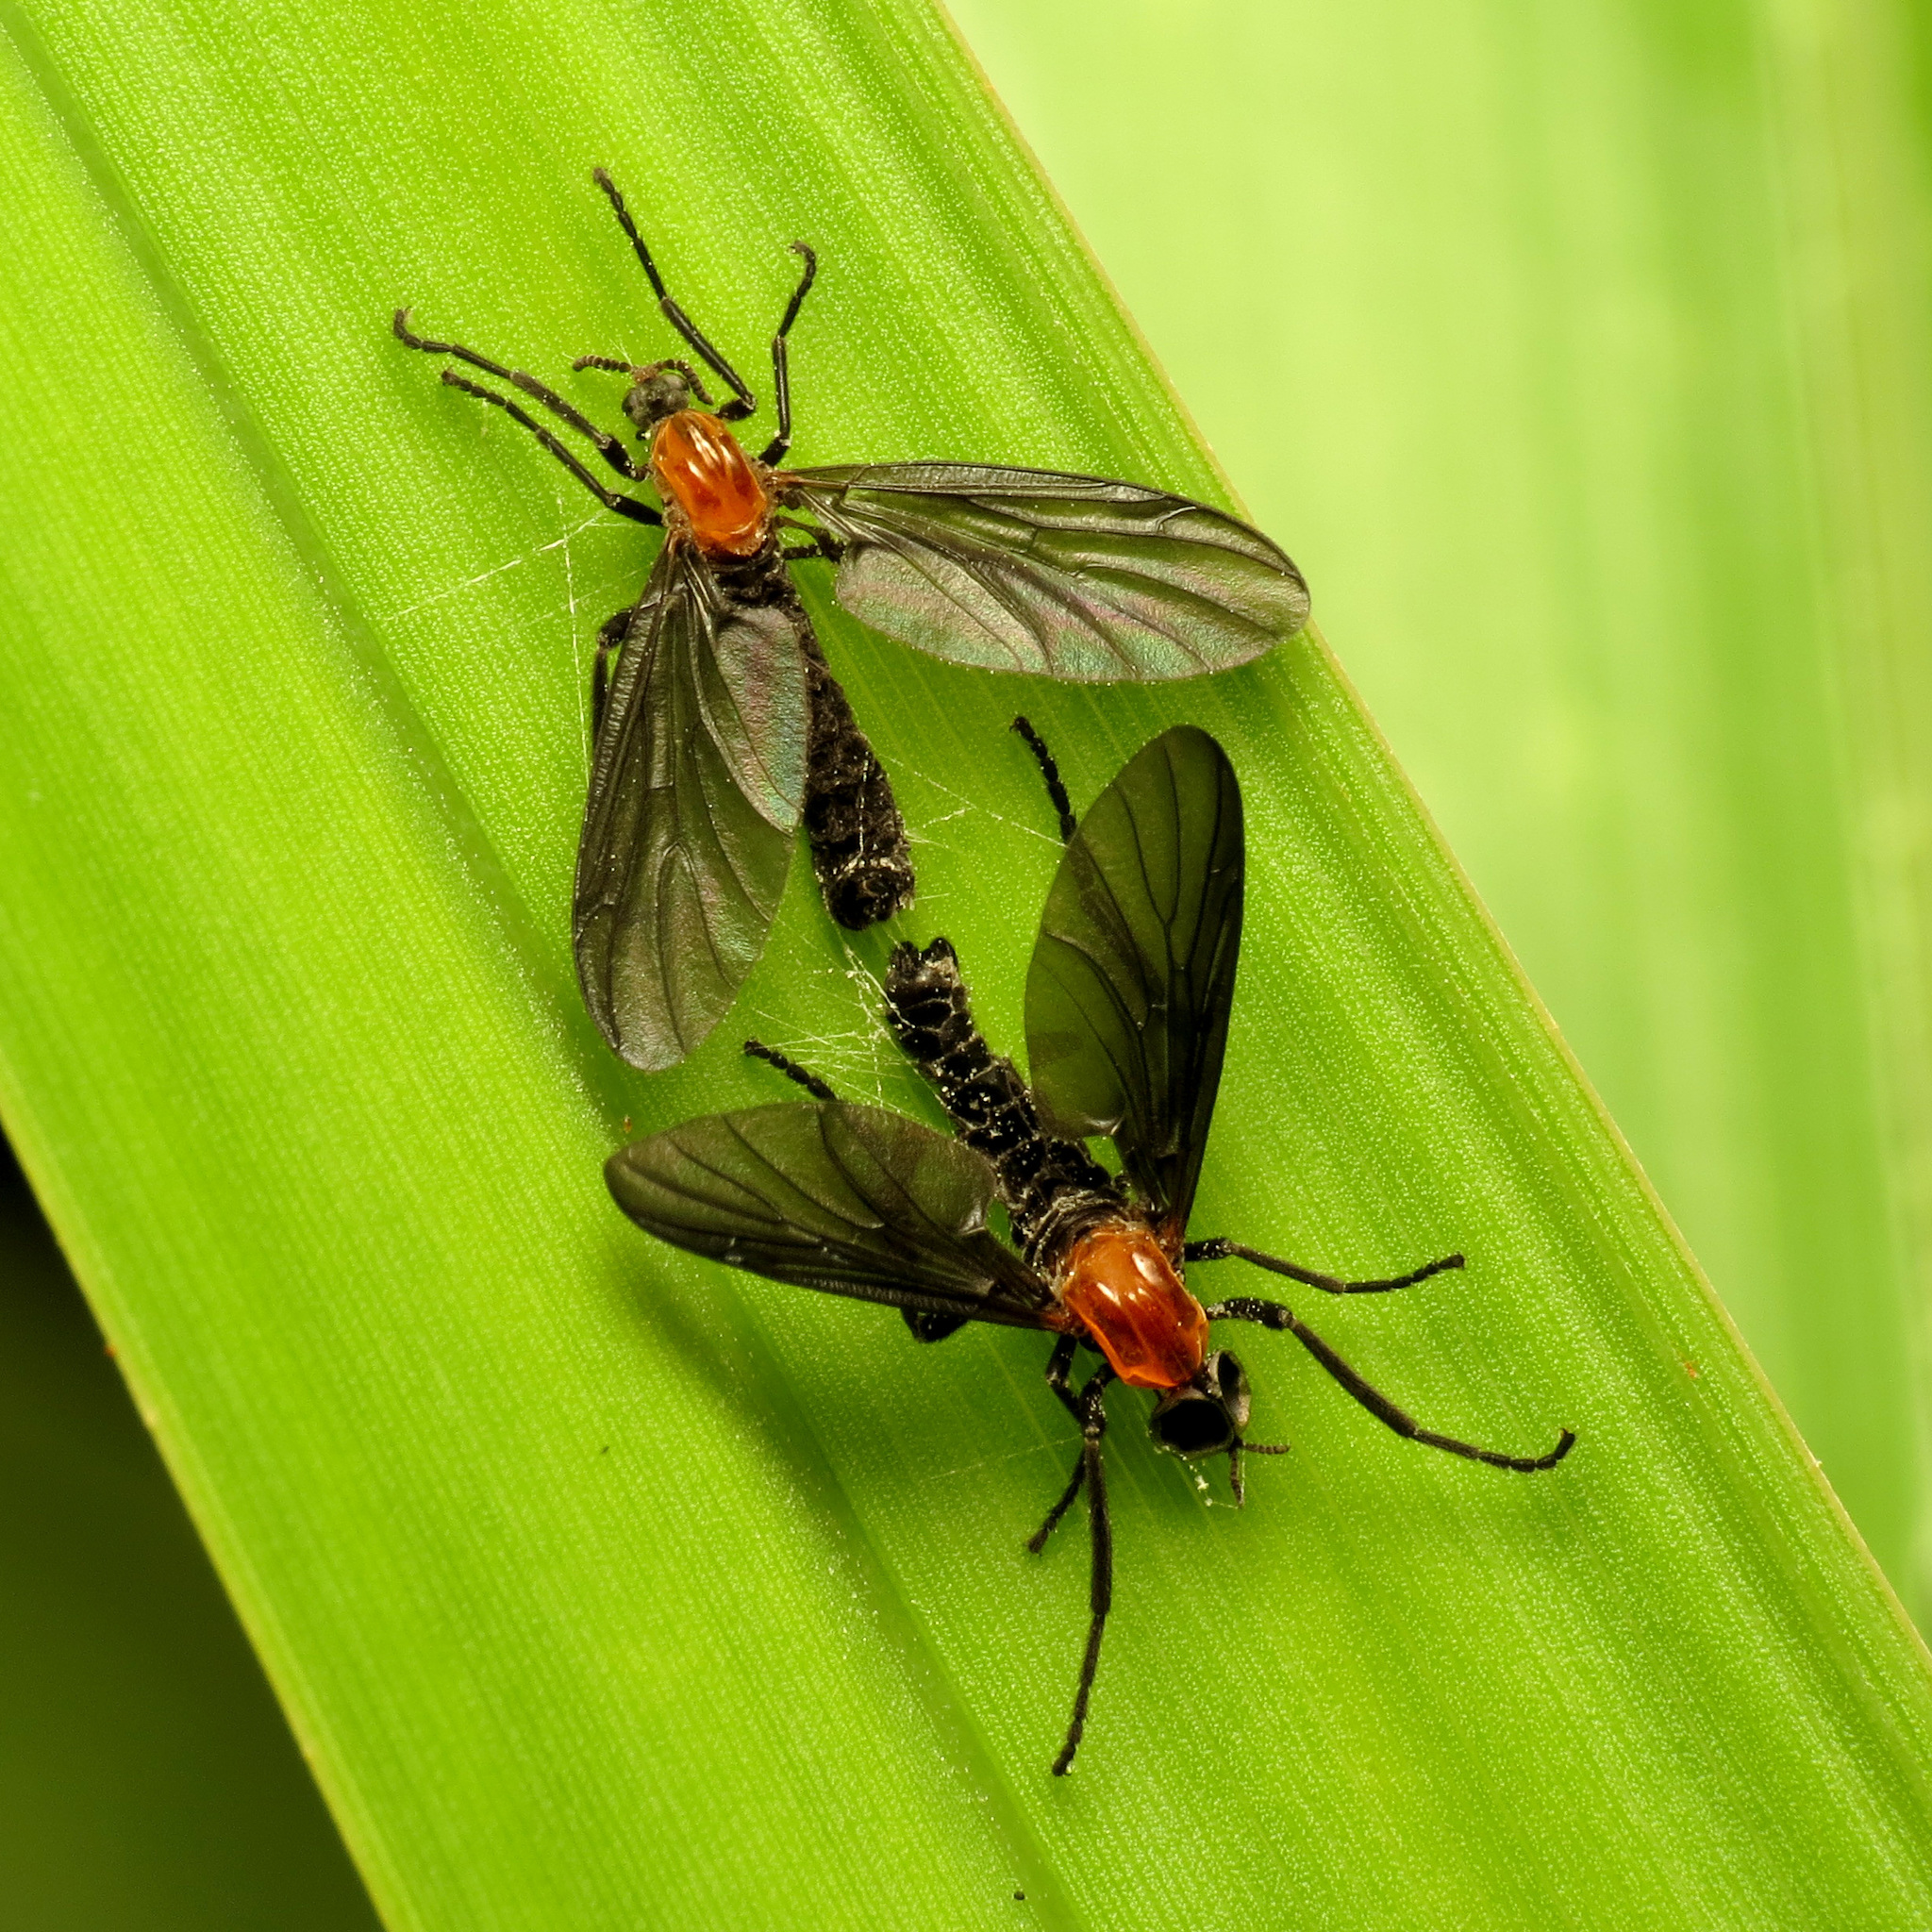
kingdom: Animalia
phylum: Arthropoda
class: Insecta
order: Diptera
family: Bibionidae
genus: Plecia
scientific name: Plecia nearctica
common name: March fly
